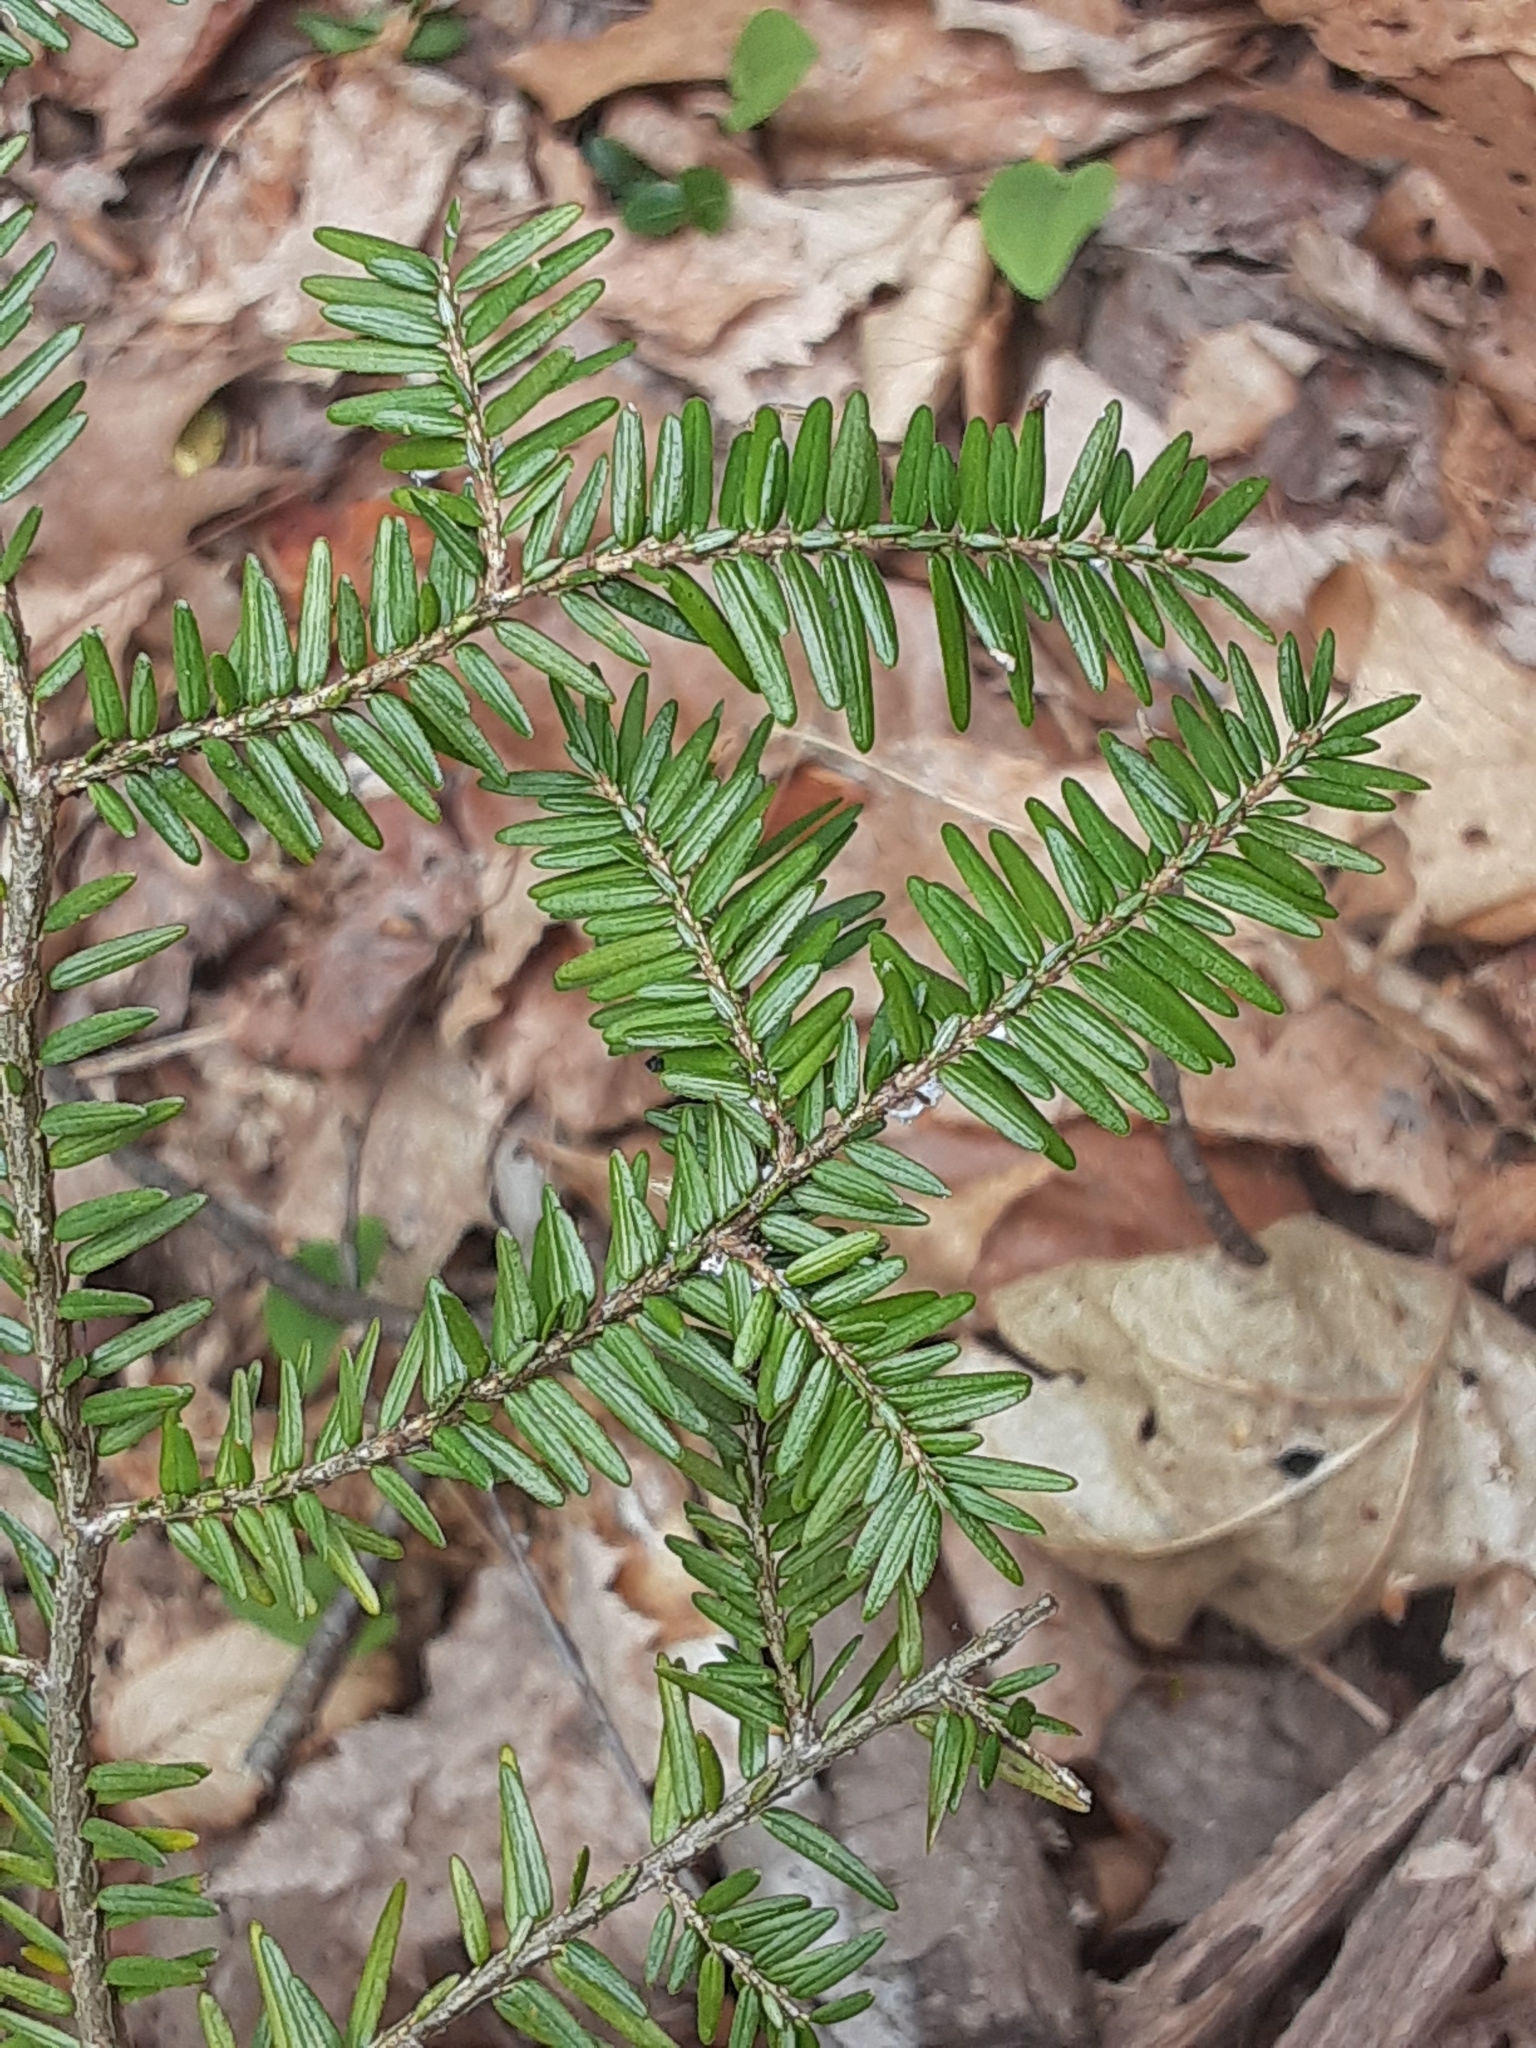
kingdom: Plantae
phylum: Tracheophyta
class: Pinopsida
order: Pinales
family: Pinaceae
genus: Tsuga
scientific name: Tsuga canadensis
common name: Eastern hemlock
